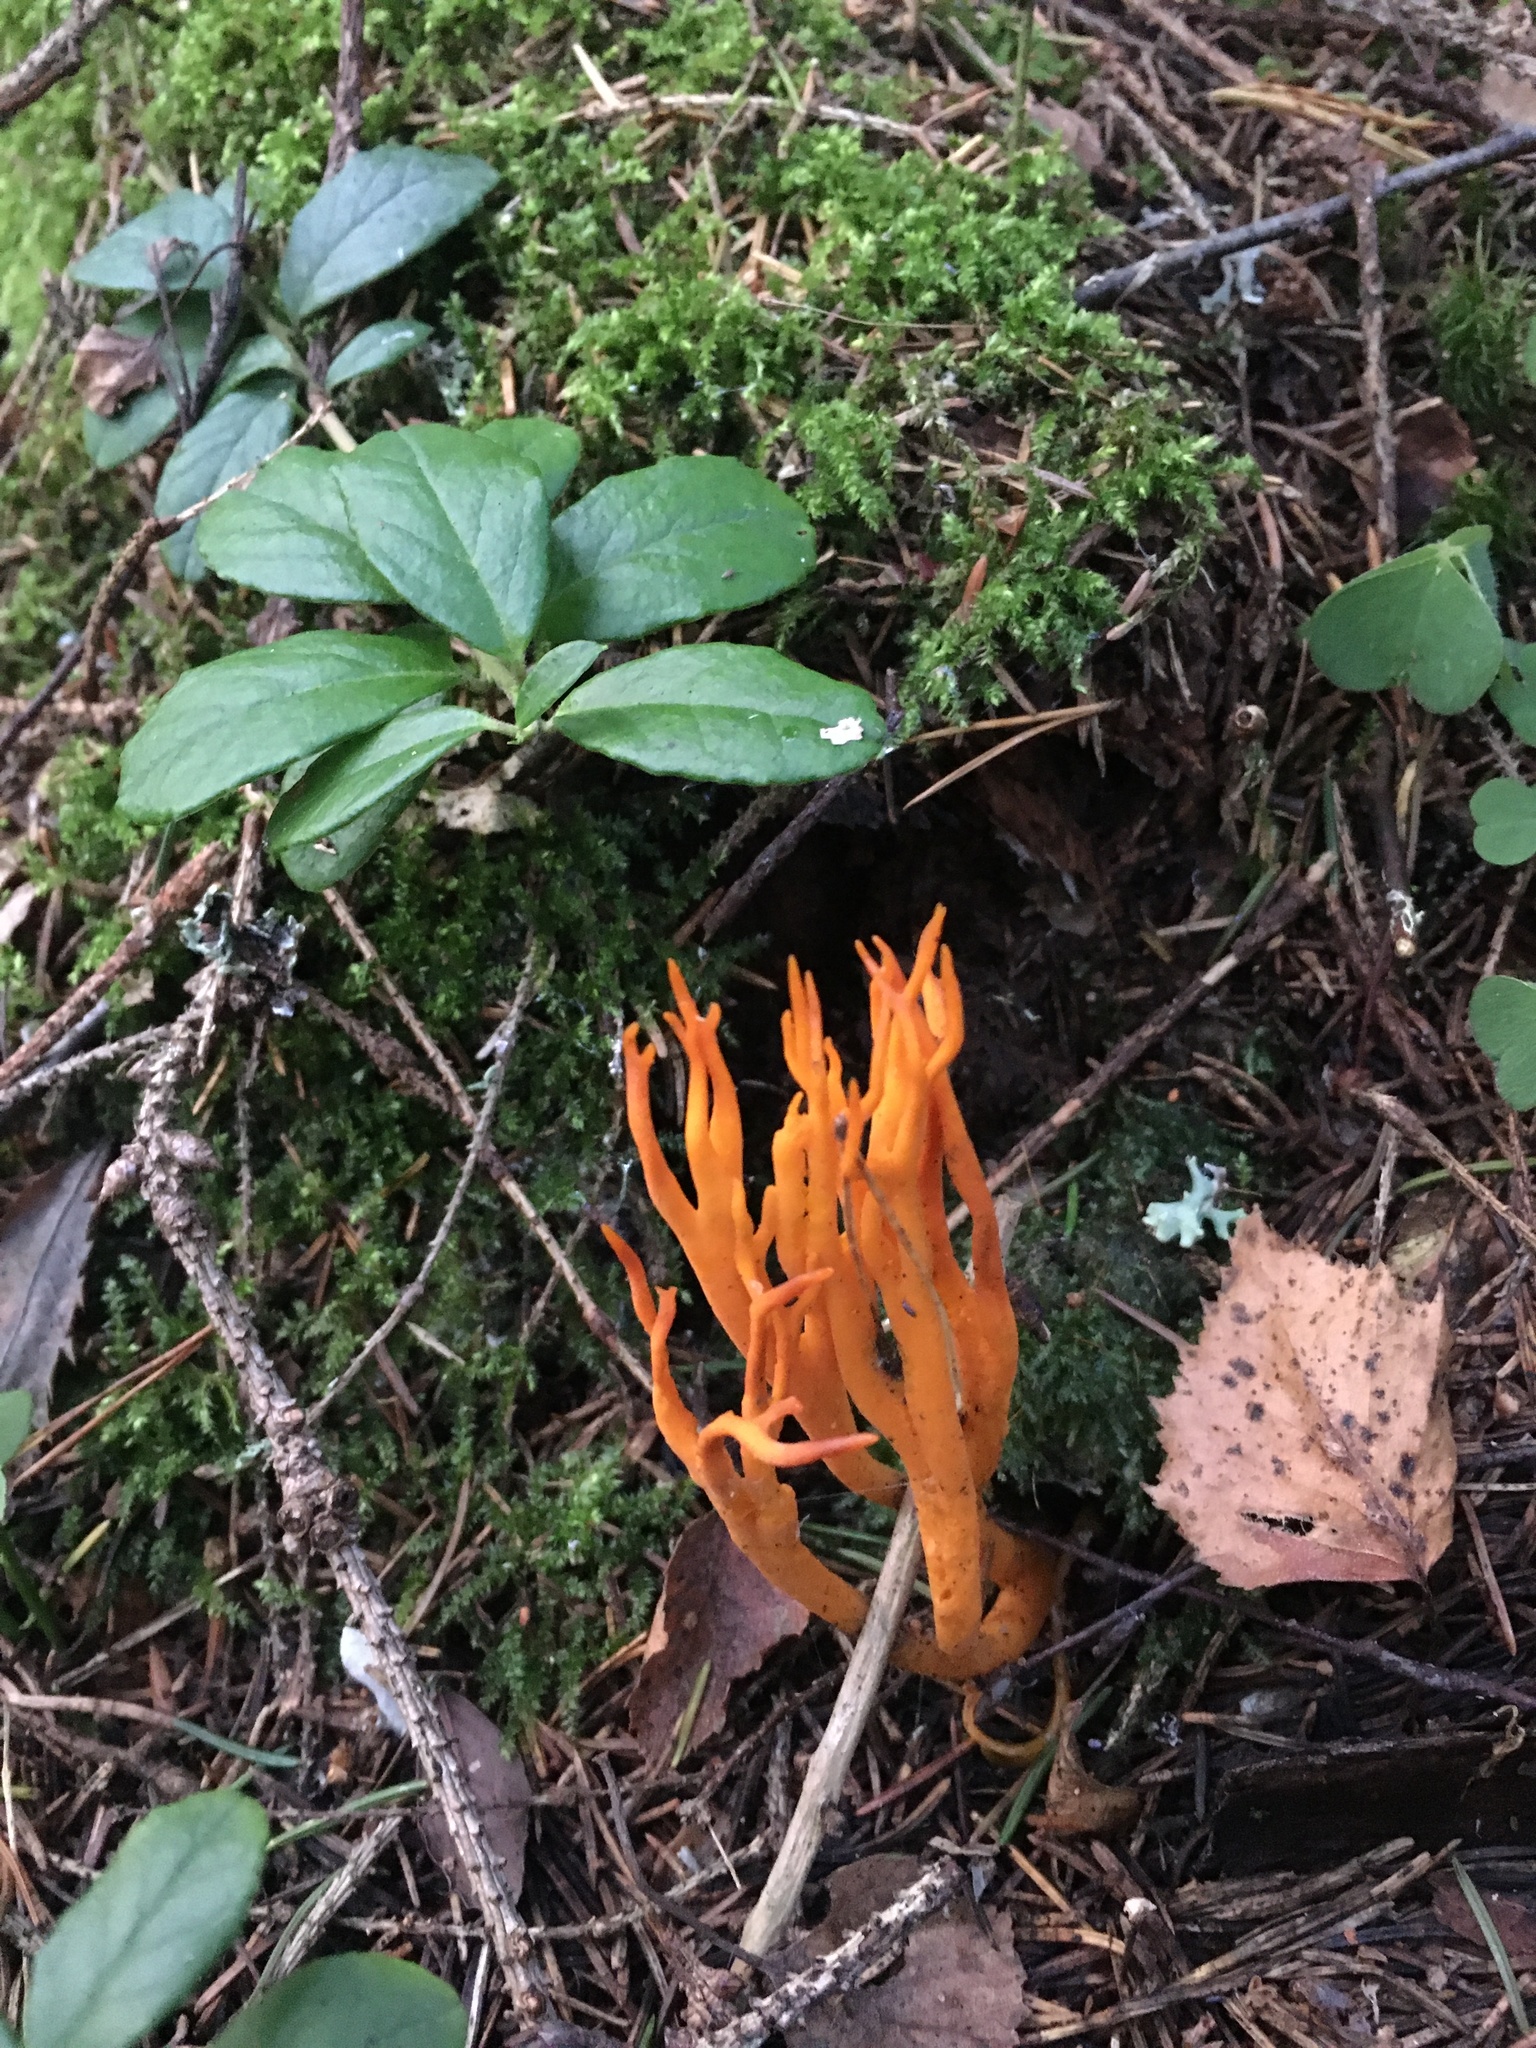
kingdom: Fungi
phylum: Basidiomycota
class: Dacrymycetes
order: Dacrymycetales
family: Dacrymycetaceae
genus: Calocera
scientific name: Calocera viscosa
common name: Yellow stagshorn
